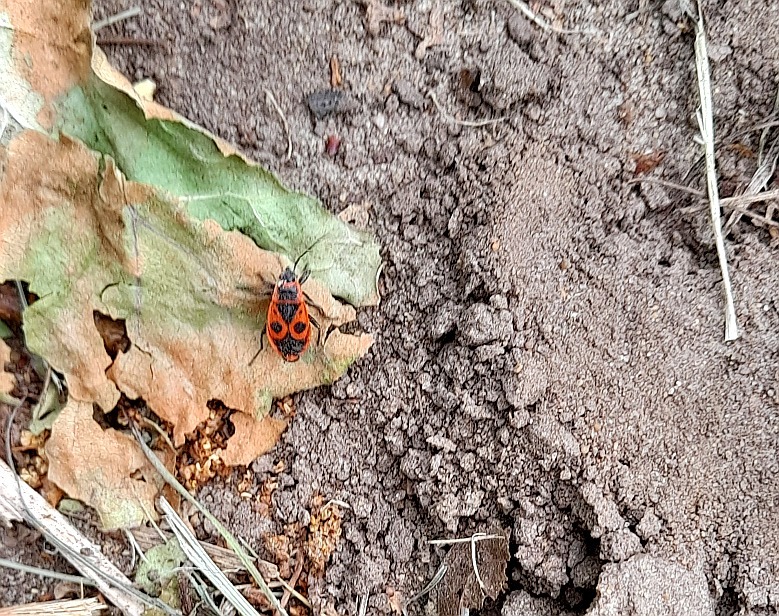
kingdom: Animalia
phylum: Arthropoda
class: Insecta
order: Hemiptera
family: Pyrrhocoridae
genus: Pyrrhocoris
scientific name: Pyrrhocoris apterus
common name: Firebug
